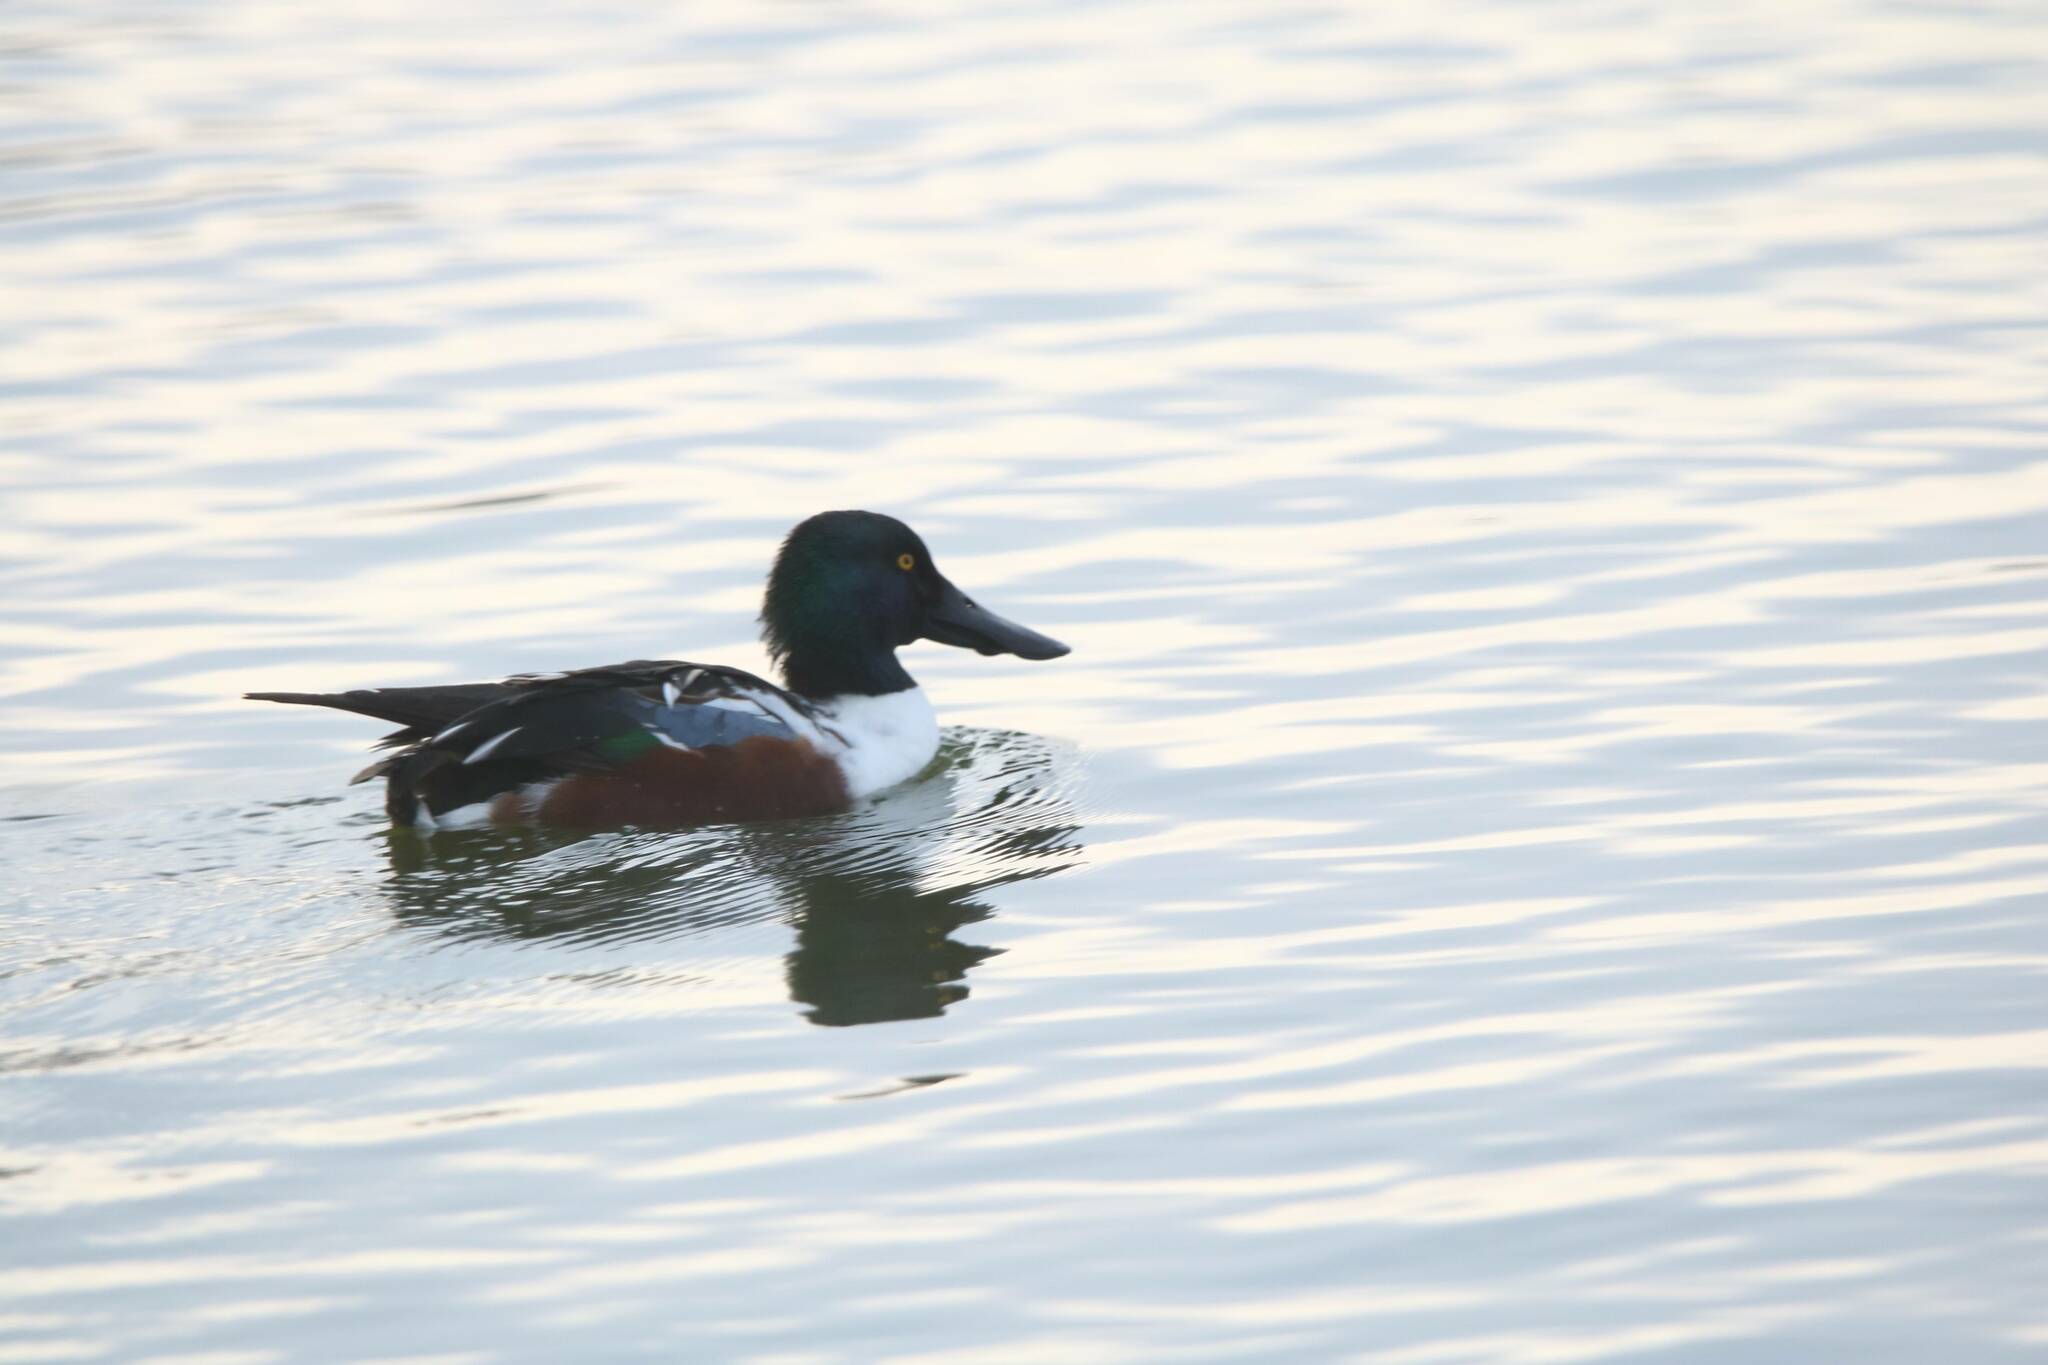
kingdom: Animalia
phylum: Chordata
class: Aves
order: Anseriformes
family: Anatidae
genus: Spatula
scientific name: Spatula clypeata
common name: Northern shoveler
